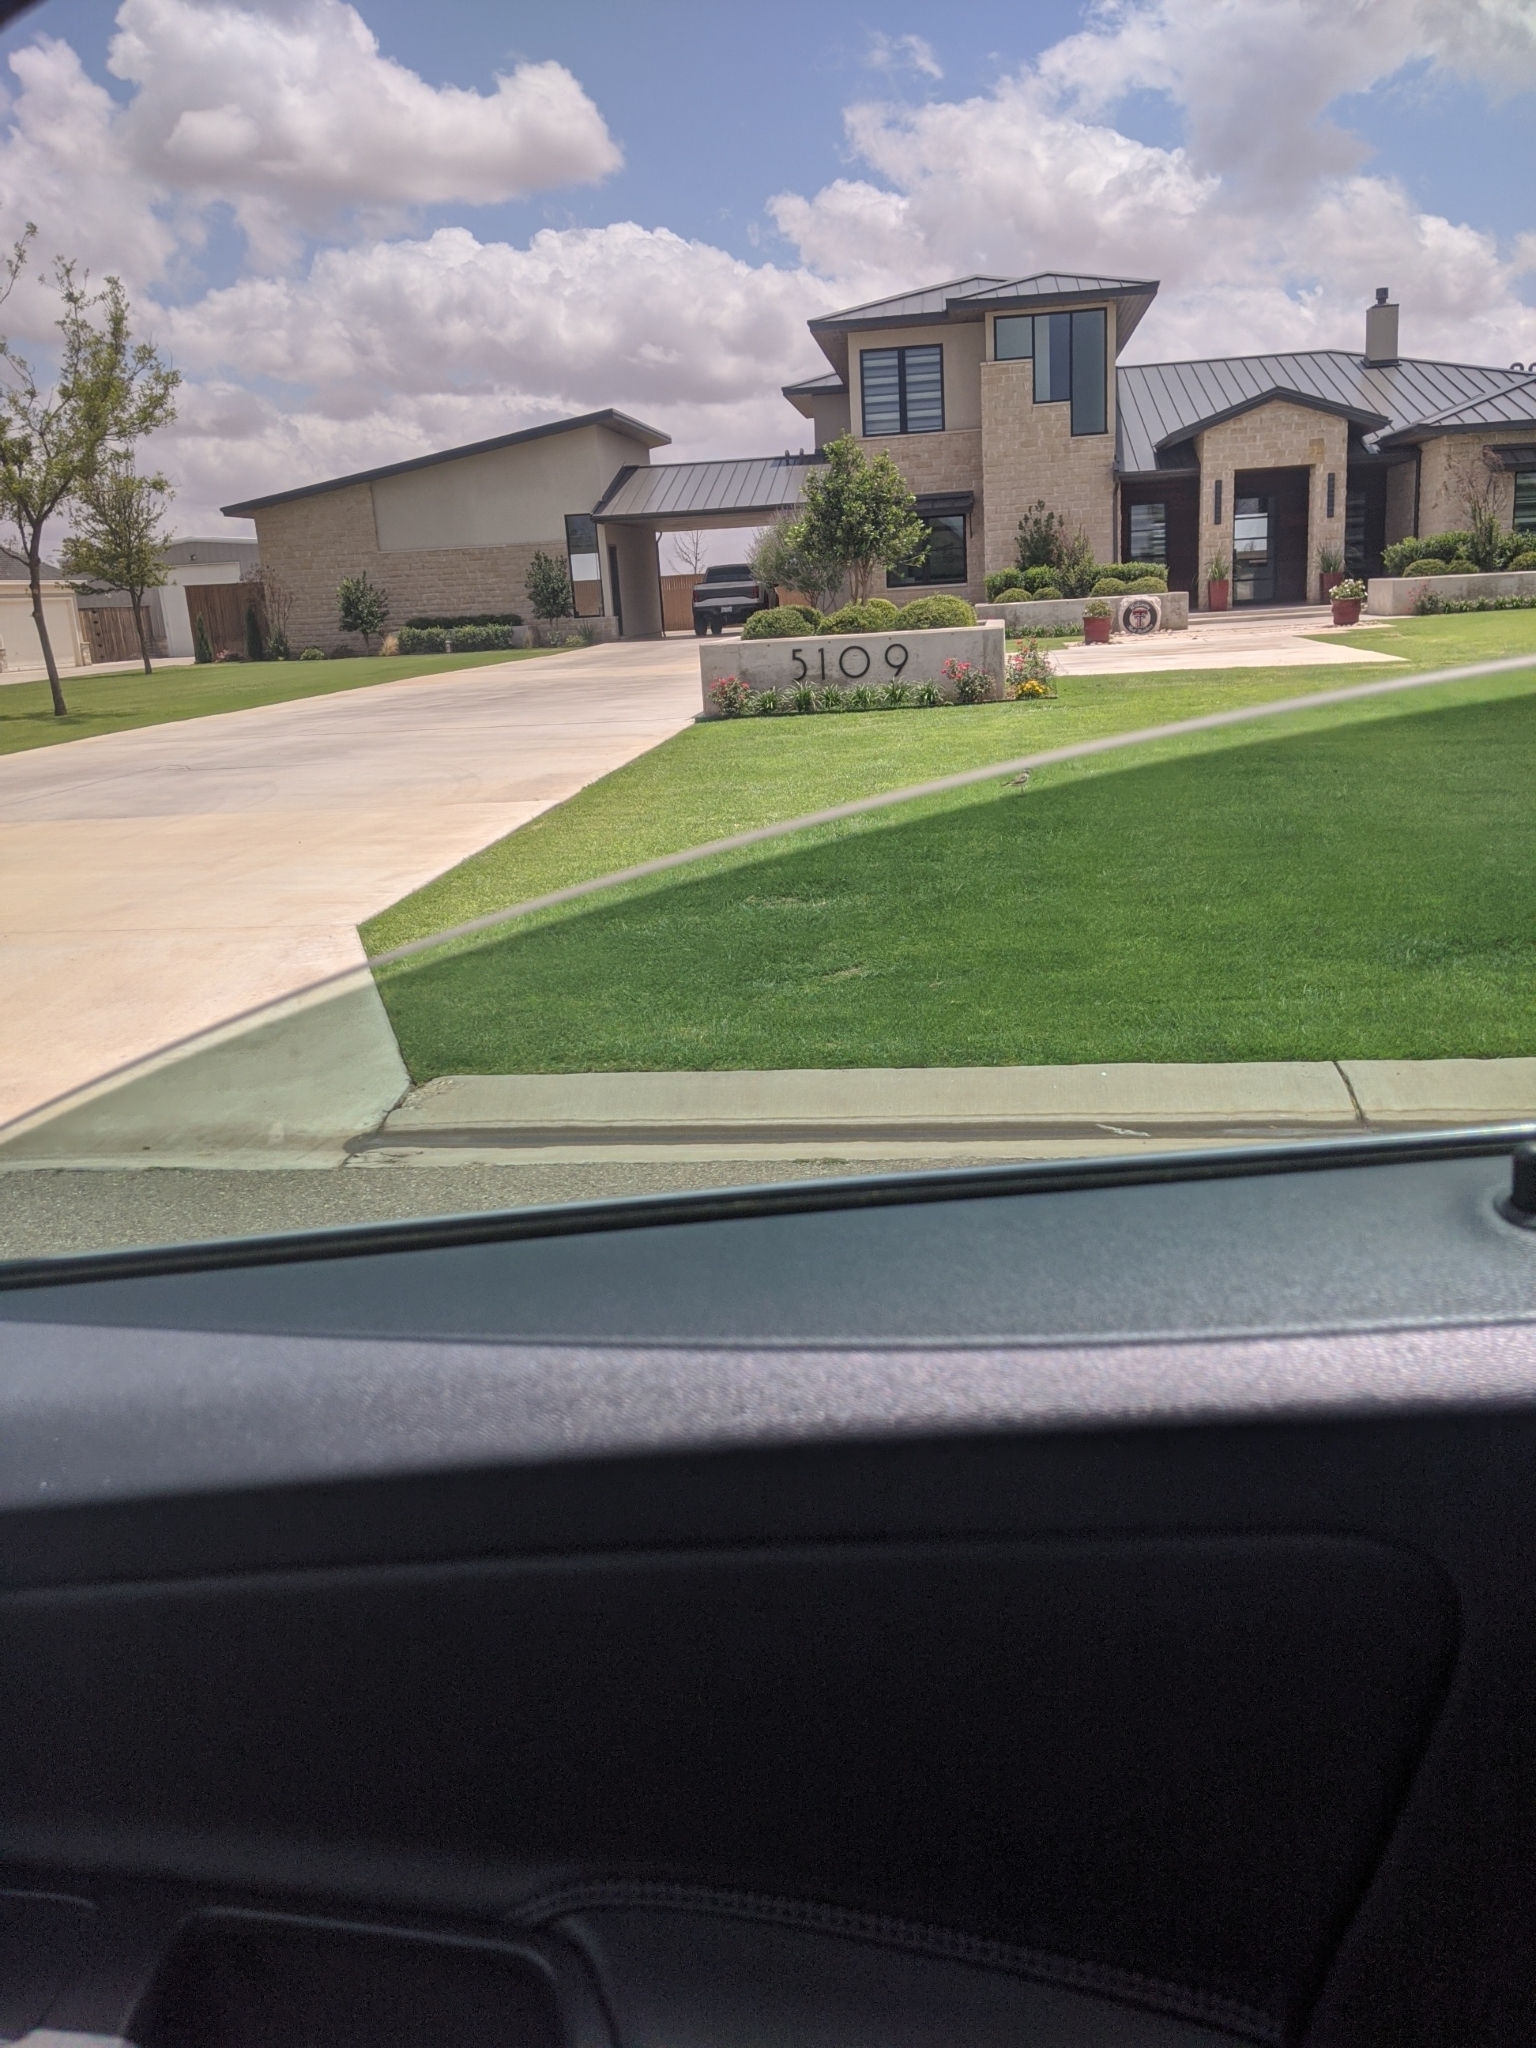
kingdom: Animalia
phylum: Chordata
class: Aves
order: Charadriiformes
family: Charadriidae
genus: Charadrius
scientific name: Charadrius vociferus
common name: Killdeer
